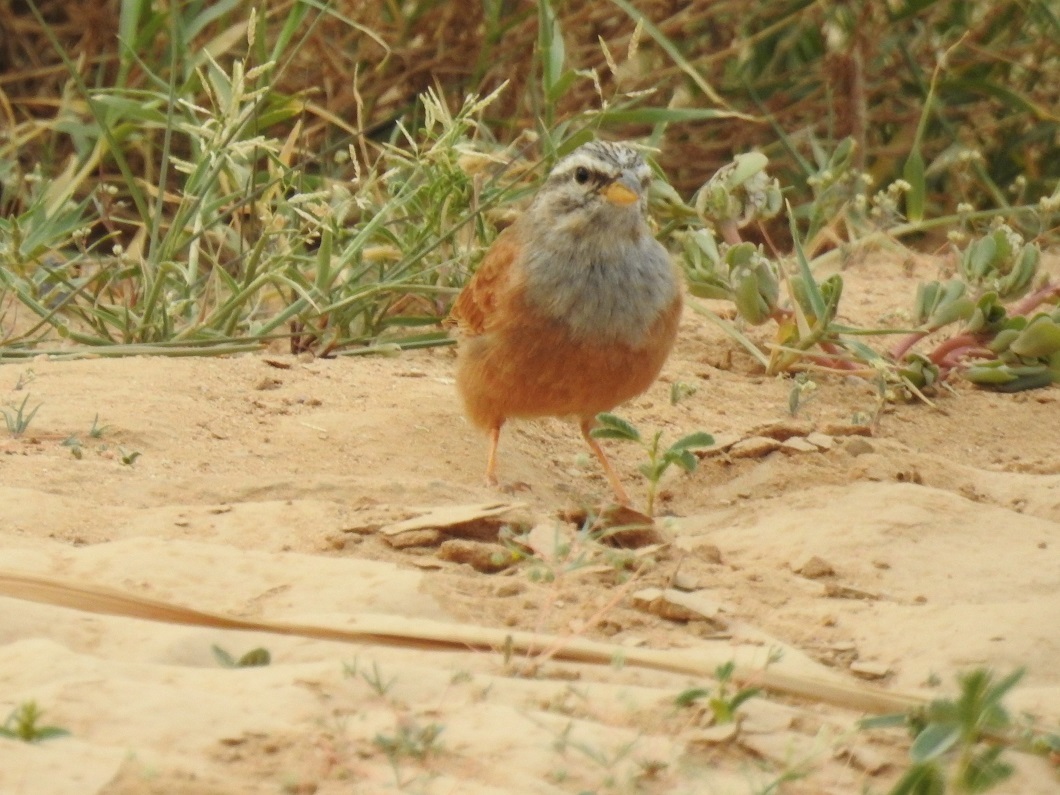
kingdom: Animalia
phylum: Chordata
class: Aves
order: Passeriformes
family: Emberizidae
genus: Emberiza
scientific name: Emberiza sahari
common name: House bunting
